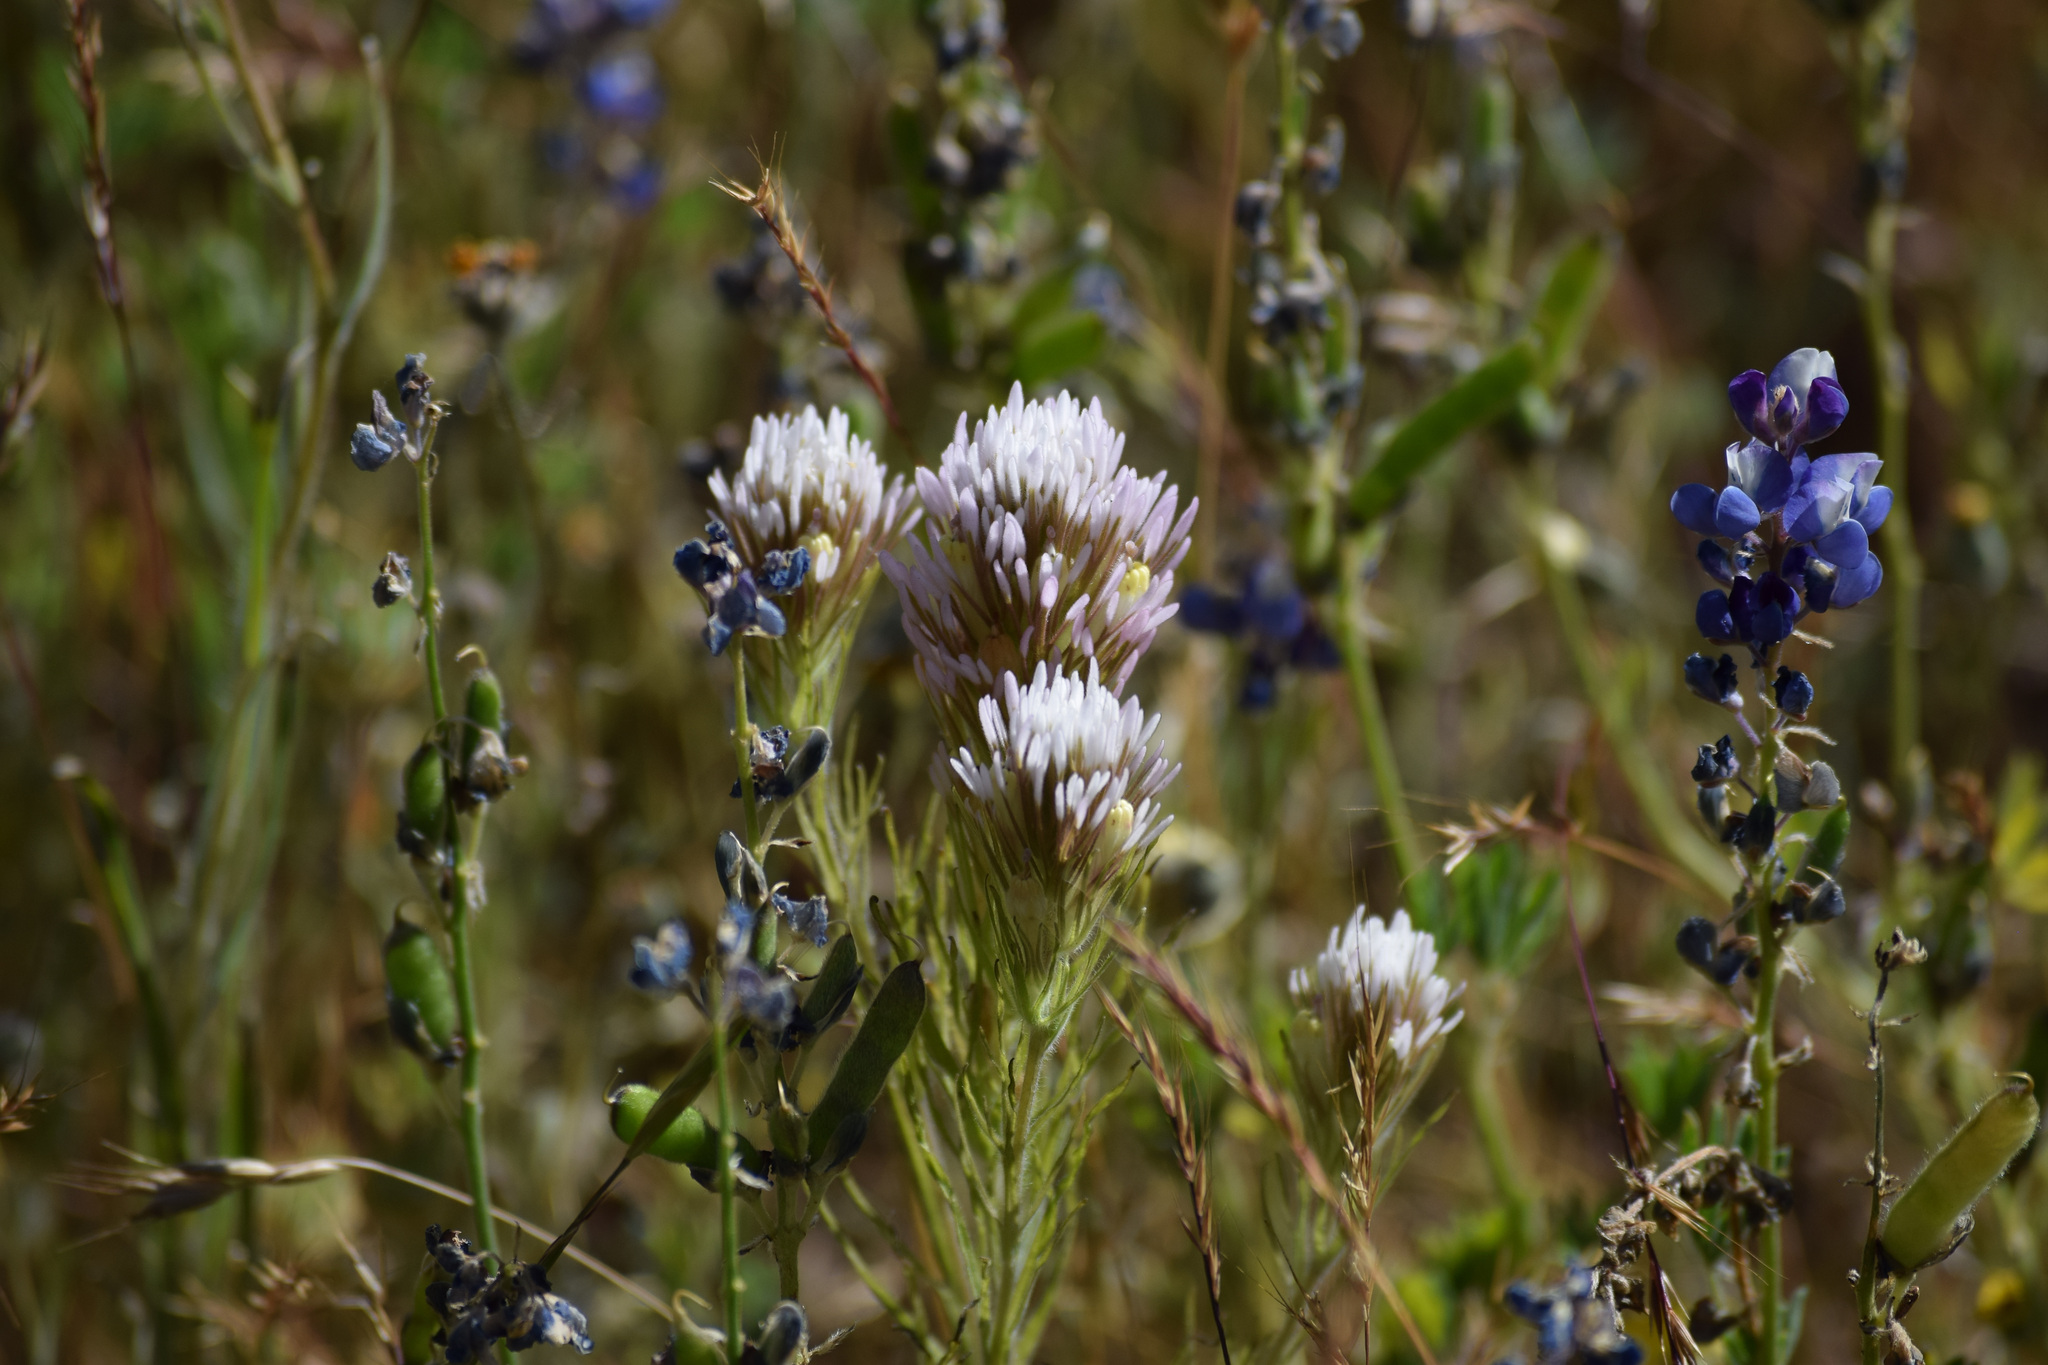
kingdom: Plantae
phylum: Tracheophyta
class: Magnoliopsida
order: Lamiales
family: Orobanchaceae
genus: Castilleja
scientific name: Castilleja lineariloba
